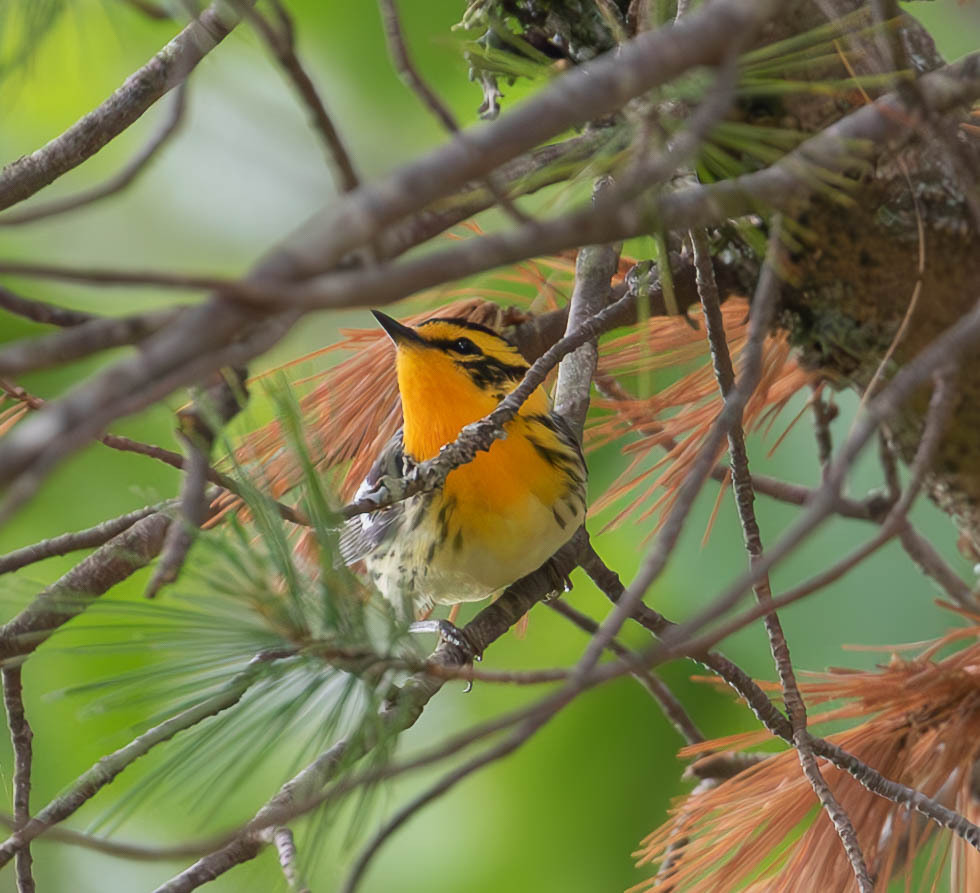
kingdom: Animalia
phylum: Chordata
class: Aves
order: Passeriformes
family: Parulidae
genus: Setophaga
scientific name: Setophaga fusca
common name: Blackburnian warbler
